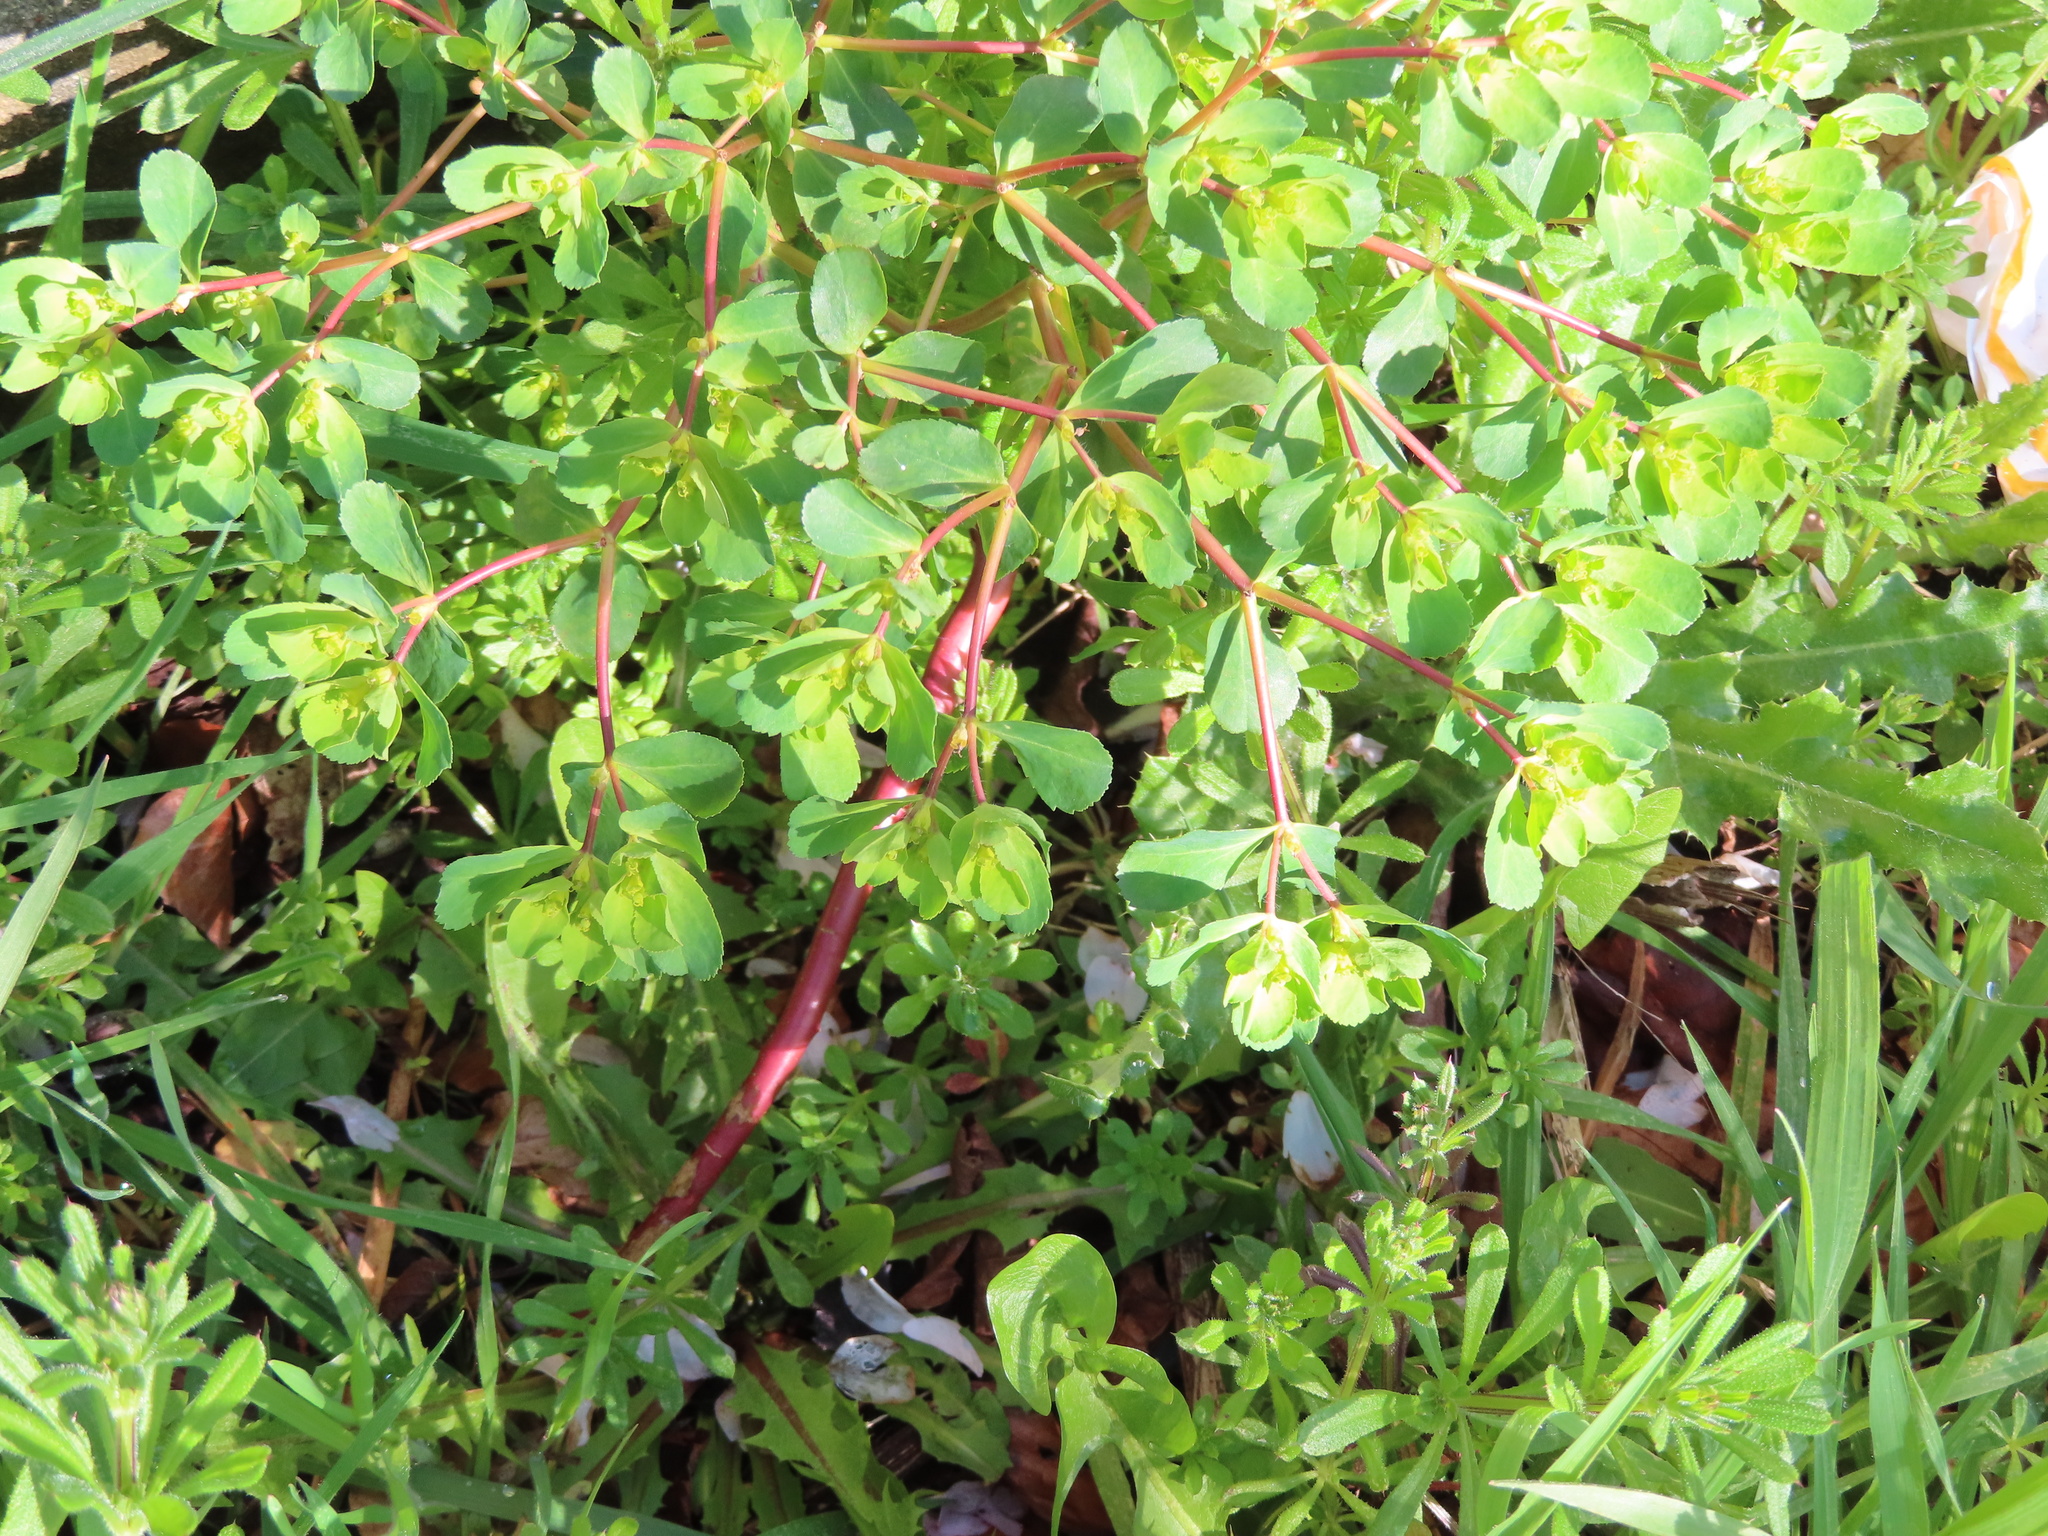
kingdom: Plantae
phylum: Tracheophyta
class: Magnoliopsida
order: Malpighiales
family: Euphorbiaceae
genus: Euphorbia
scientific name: Euphorbia helioscopia
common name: Sun spurge
